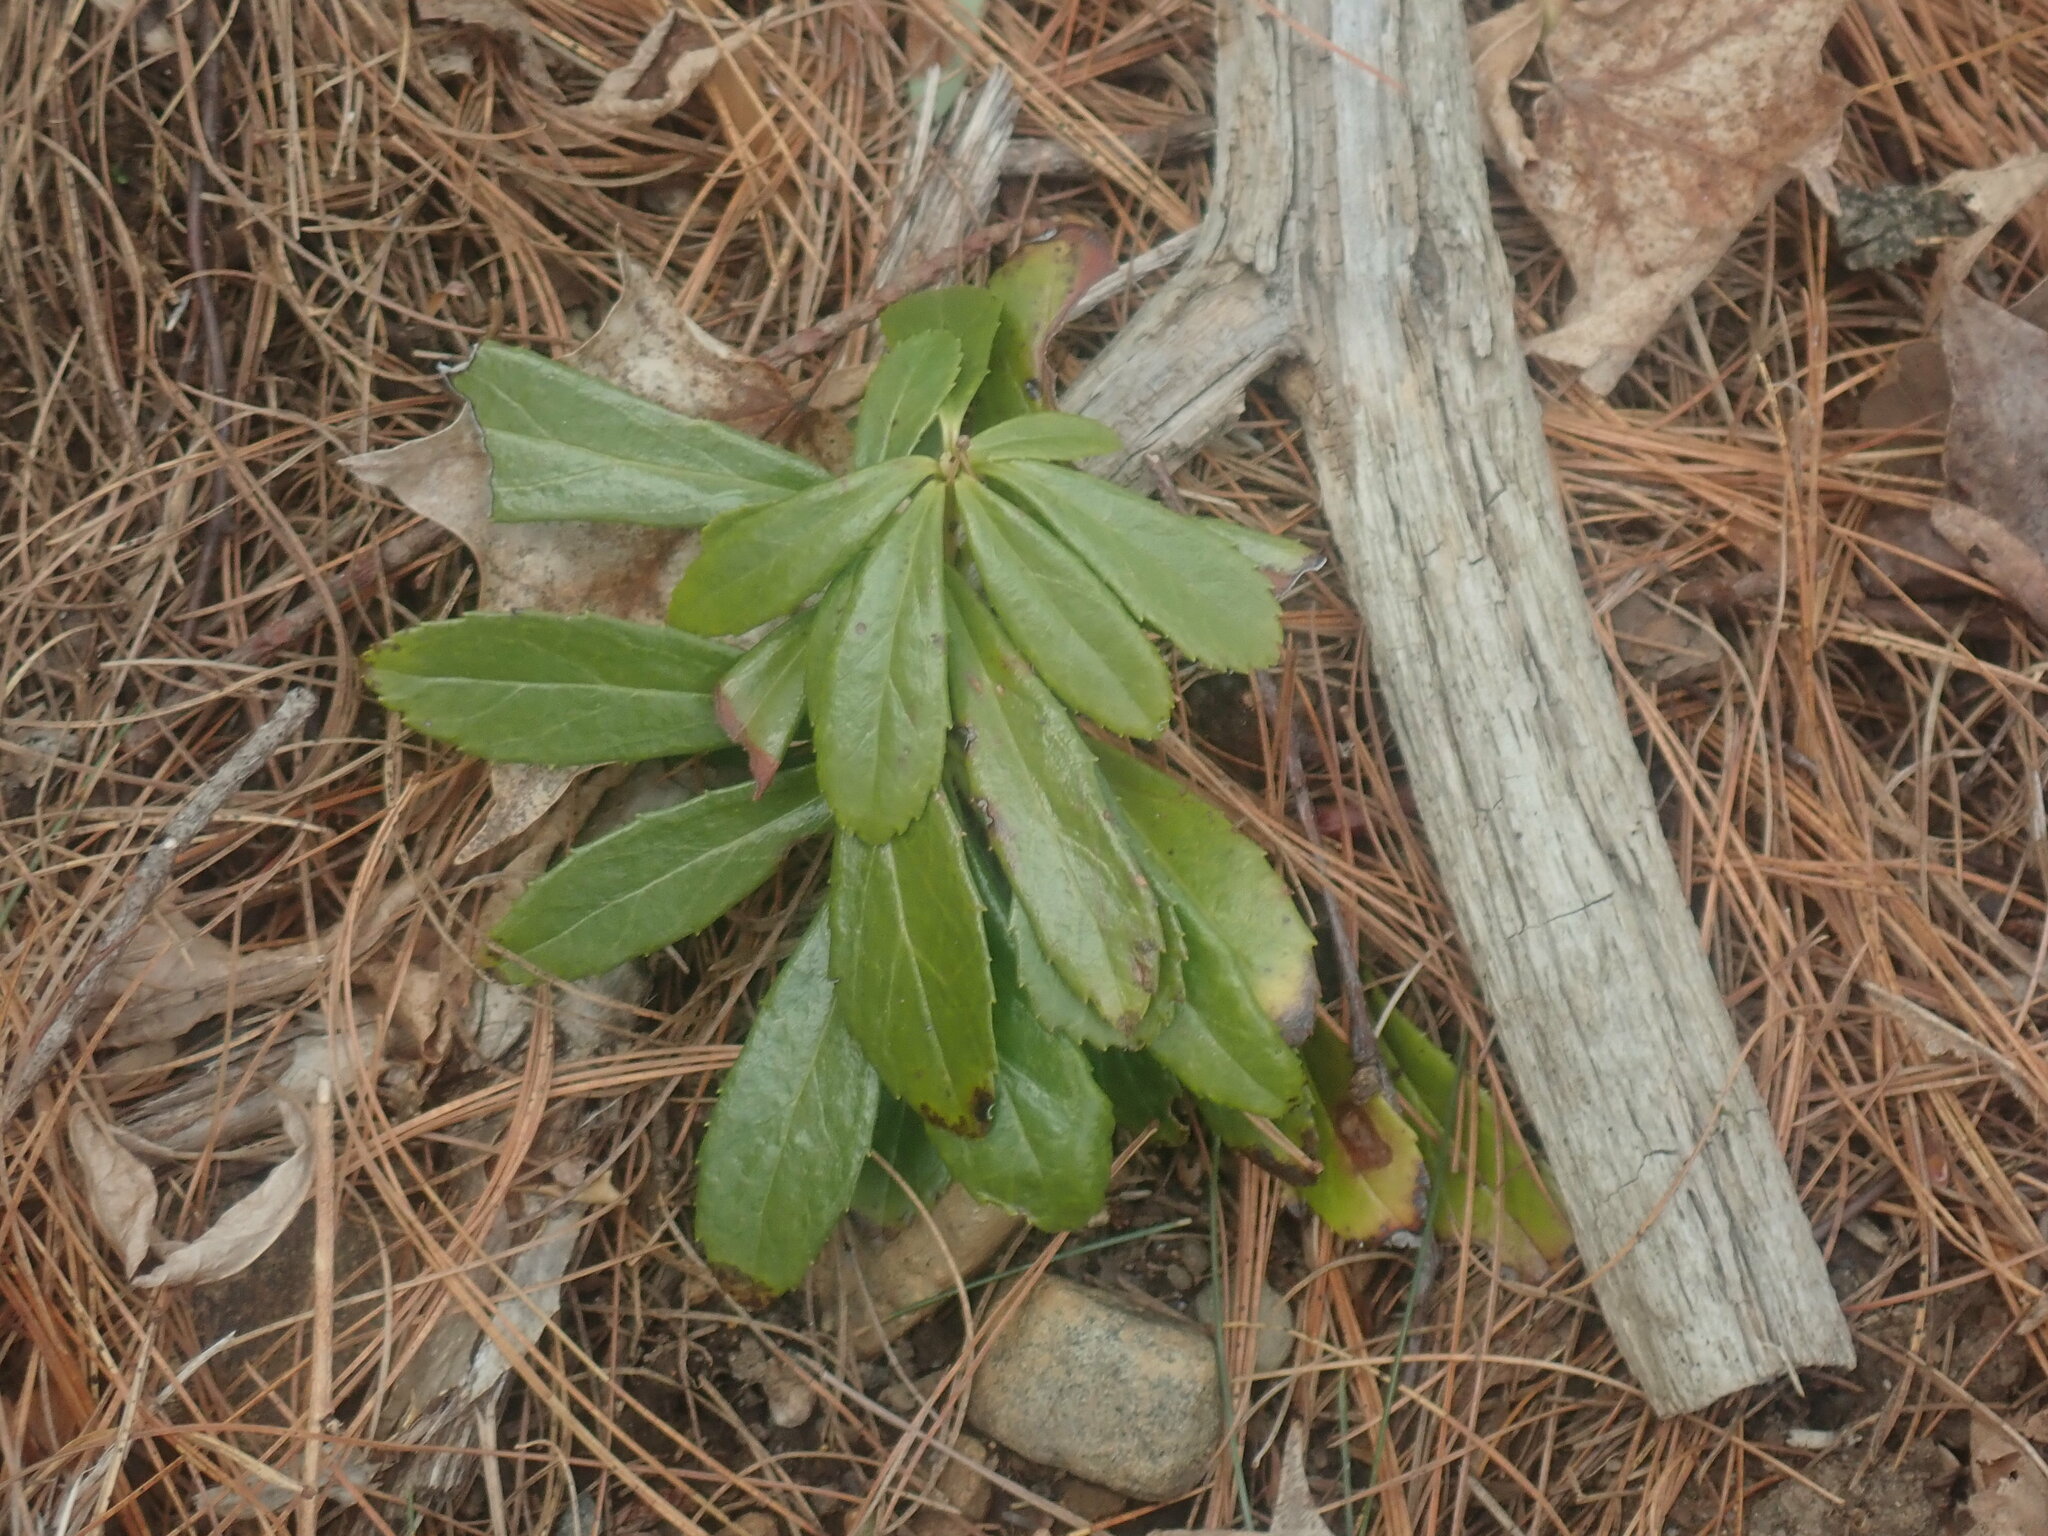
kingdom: Plantae
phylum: Tracheophyta
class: Magnoliopsida
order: Ericales
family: Ericaceae
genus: Chimaphila
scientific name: Chimaphila umbellata
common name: Pipsissewa
